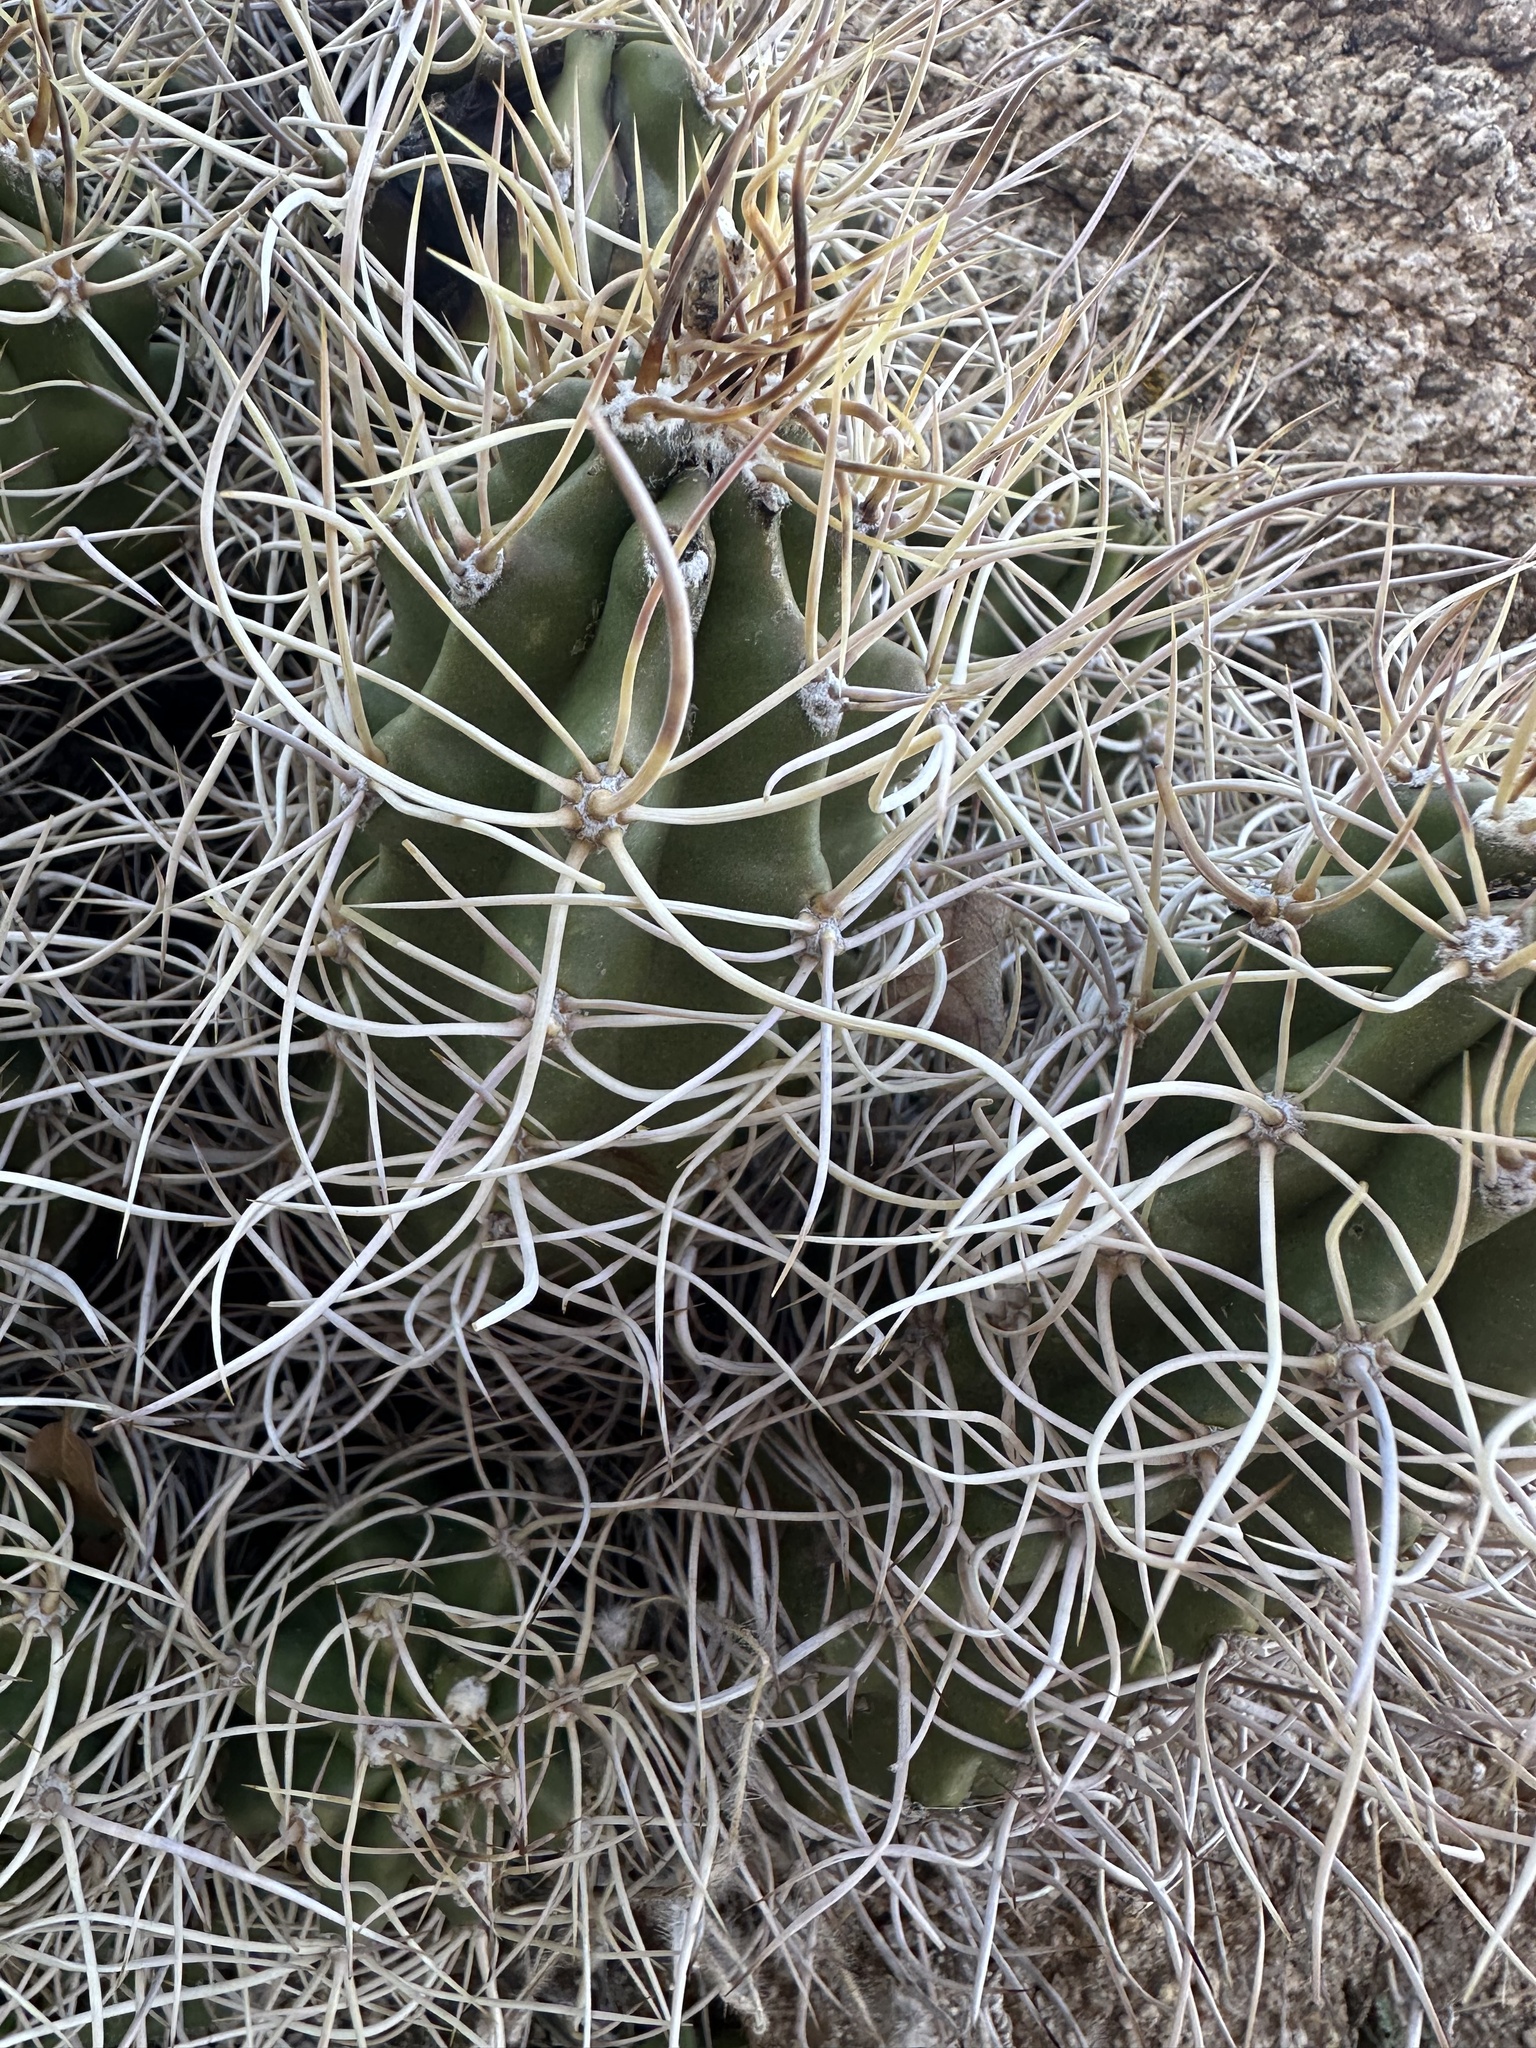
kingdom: Plantae
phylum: Tracheophyta
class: Magnoliopsida
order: Caryophyllales
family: Cactaceae
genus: Echinocereus
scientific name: Echinocereus triglochidiatus
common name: Claretcup hedgehog
